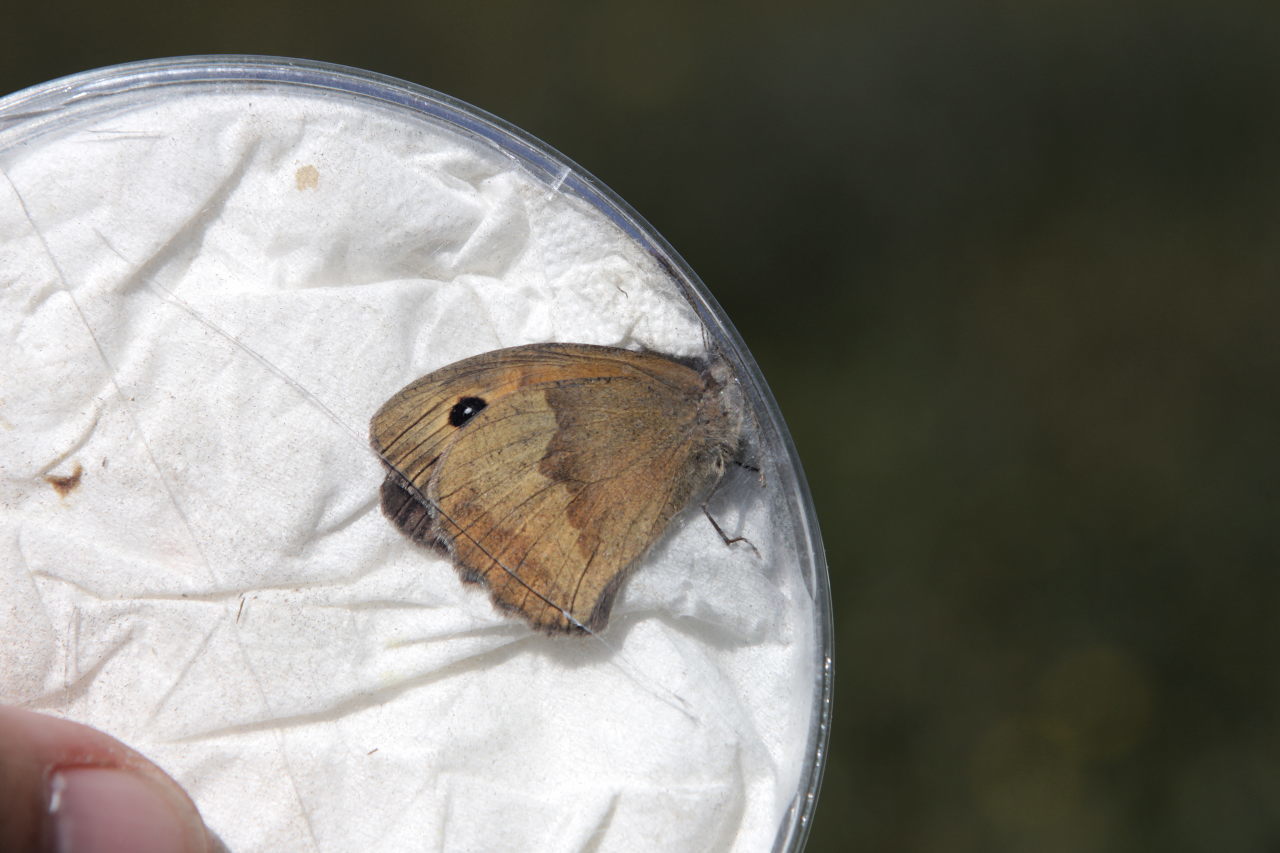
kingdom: Animalia
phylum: Arthropoda
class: Insecta
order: Lepidoptera
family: Nymphalidae
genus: Maniola
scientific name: Maniola jurtina
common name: Meadow brown
